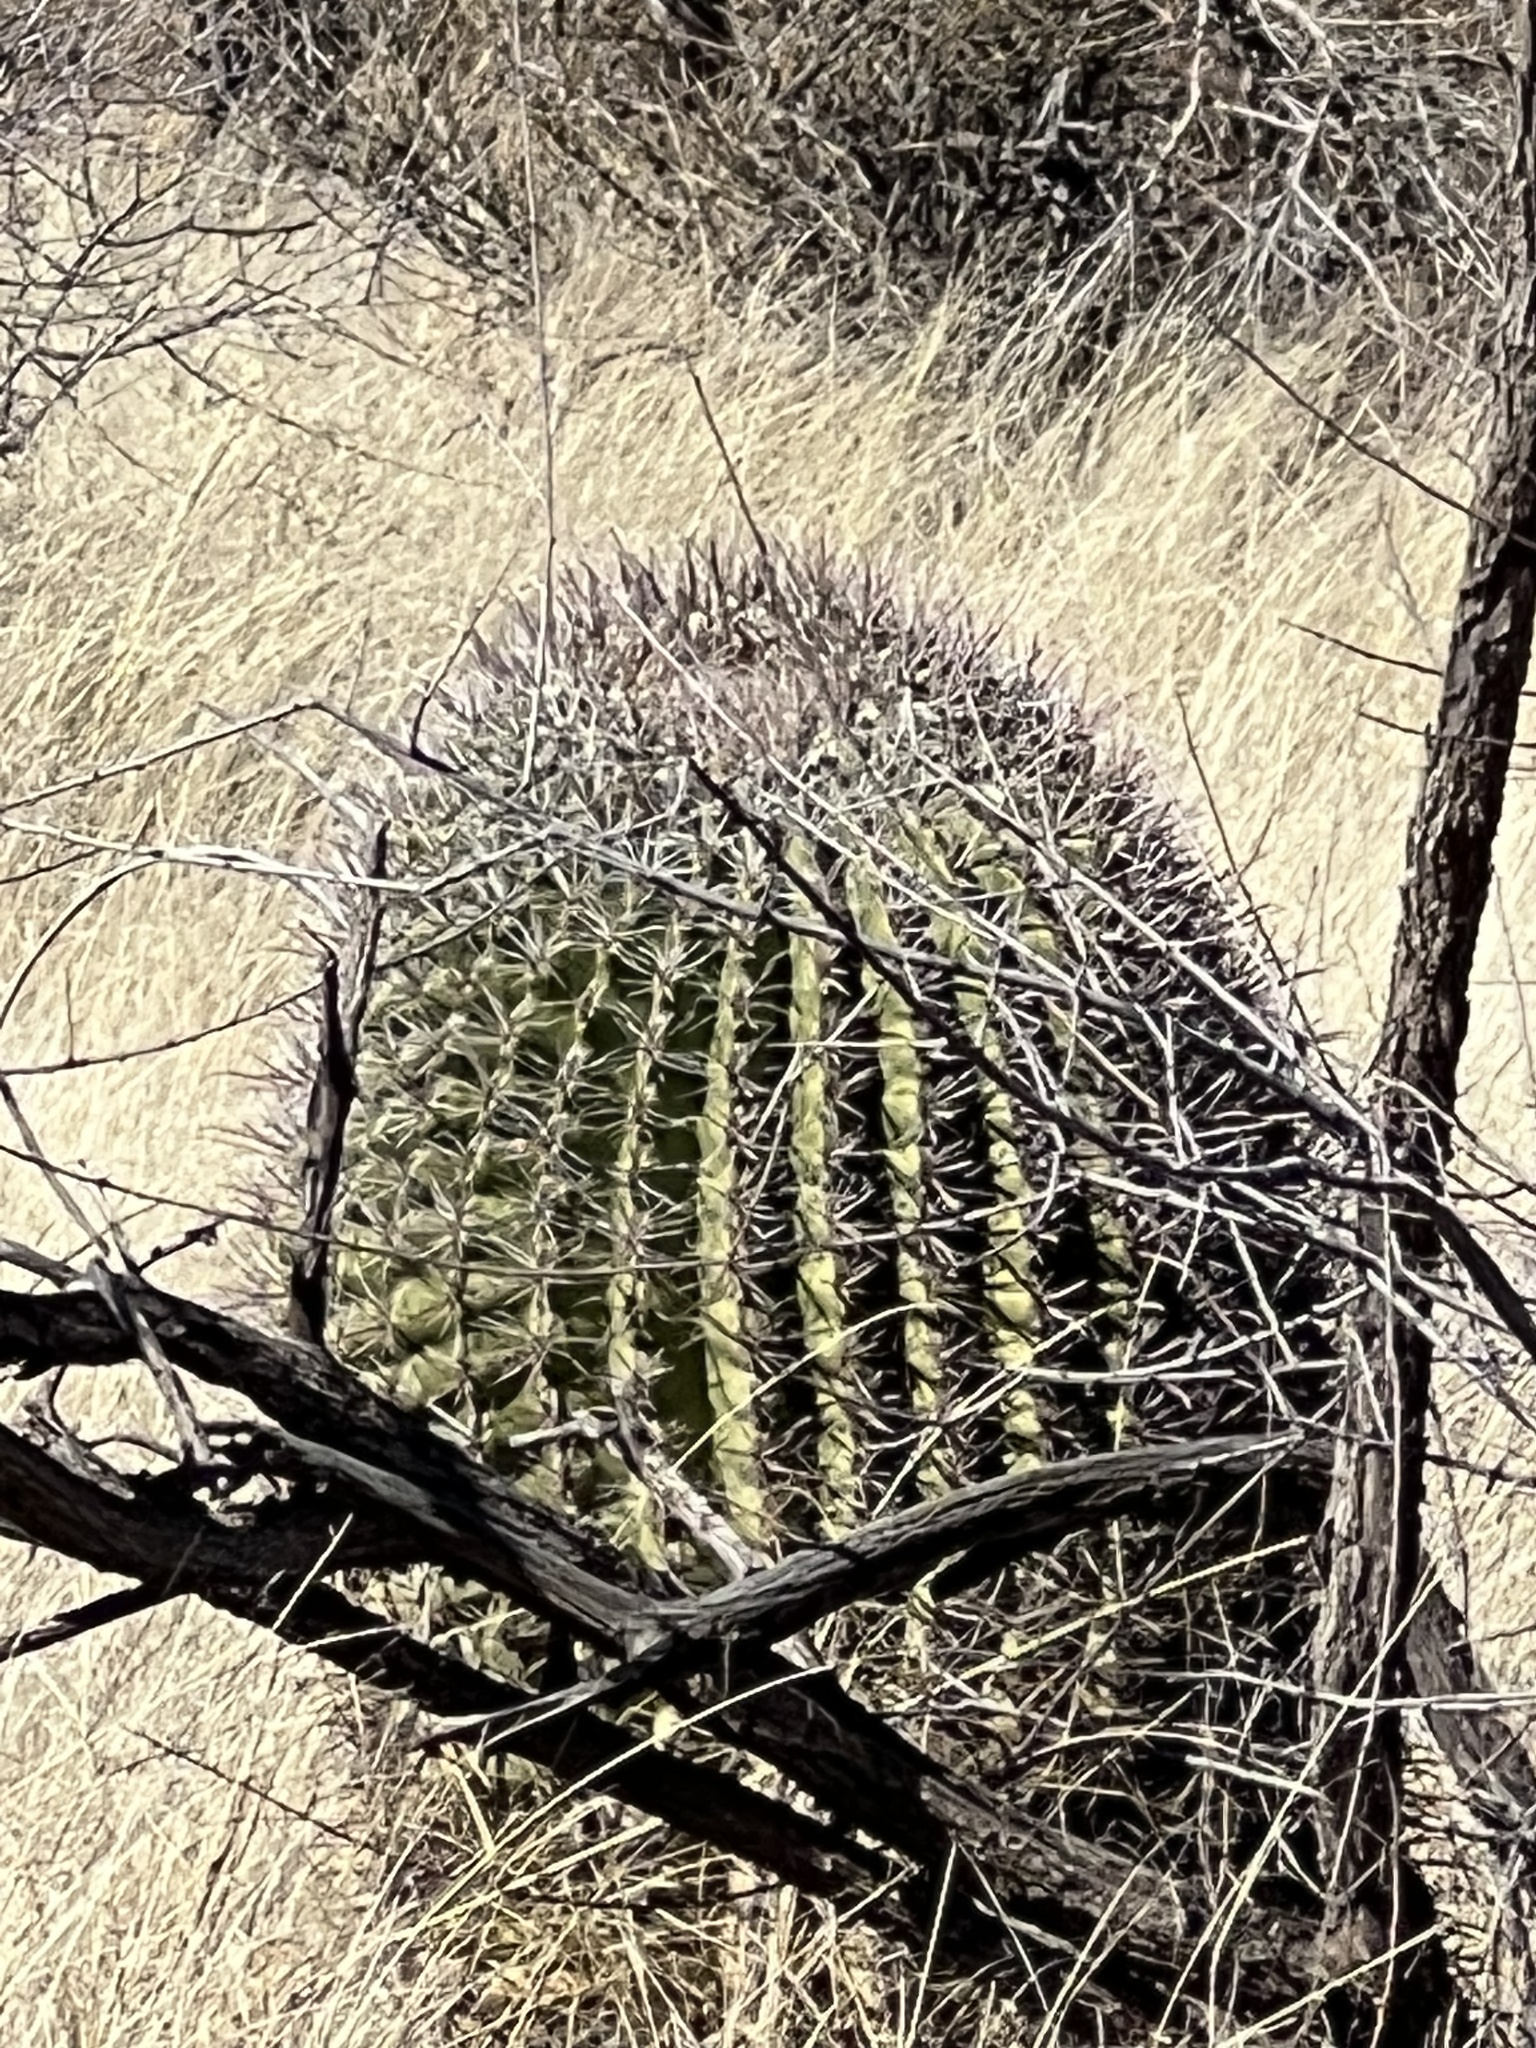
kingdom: Plantae
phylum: Tracheophyta
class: Magnoliopsida
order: Caryophyllales
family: Cactaceae
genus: Ferocactus
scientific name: Ferocactus wislizeni
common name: Candy barrel cactus
